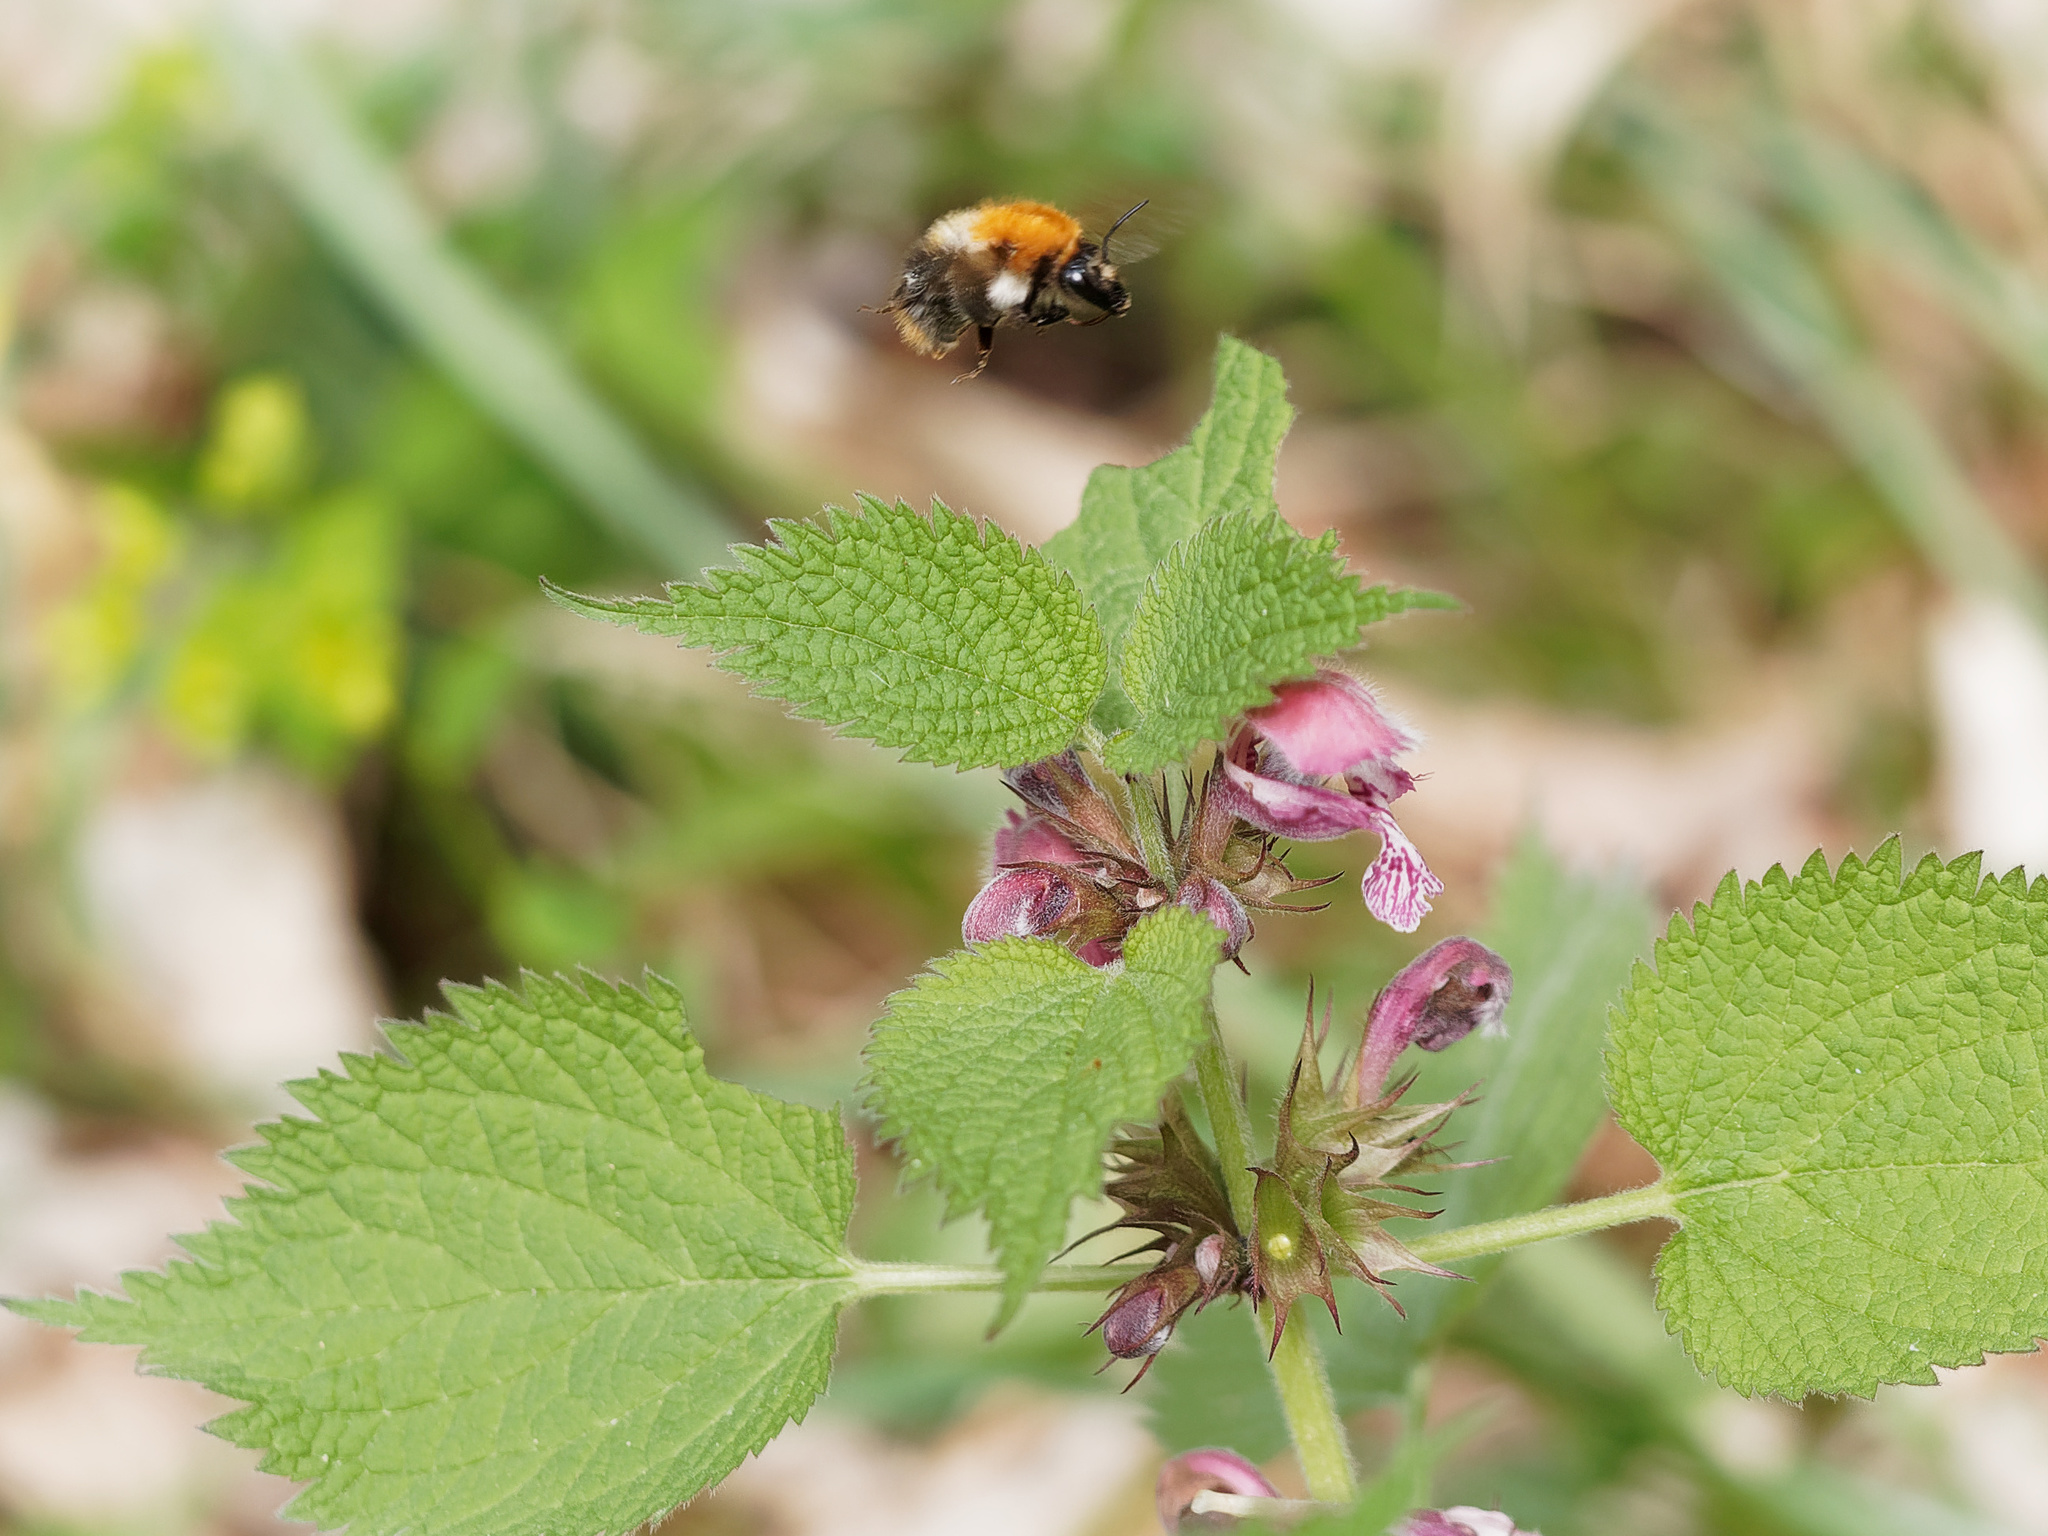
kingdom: Animalia
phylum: Arthropoda
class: Insecta
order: Hymenoptera
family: Apidae
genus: Bombus
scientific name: Bombus pascuorum
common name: Common carder bee
